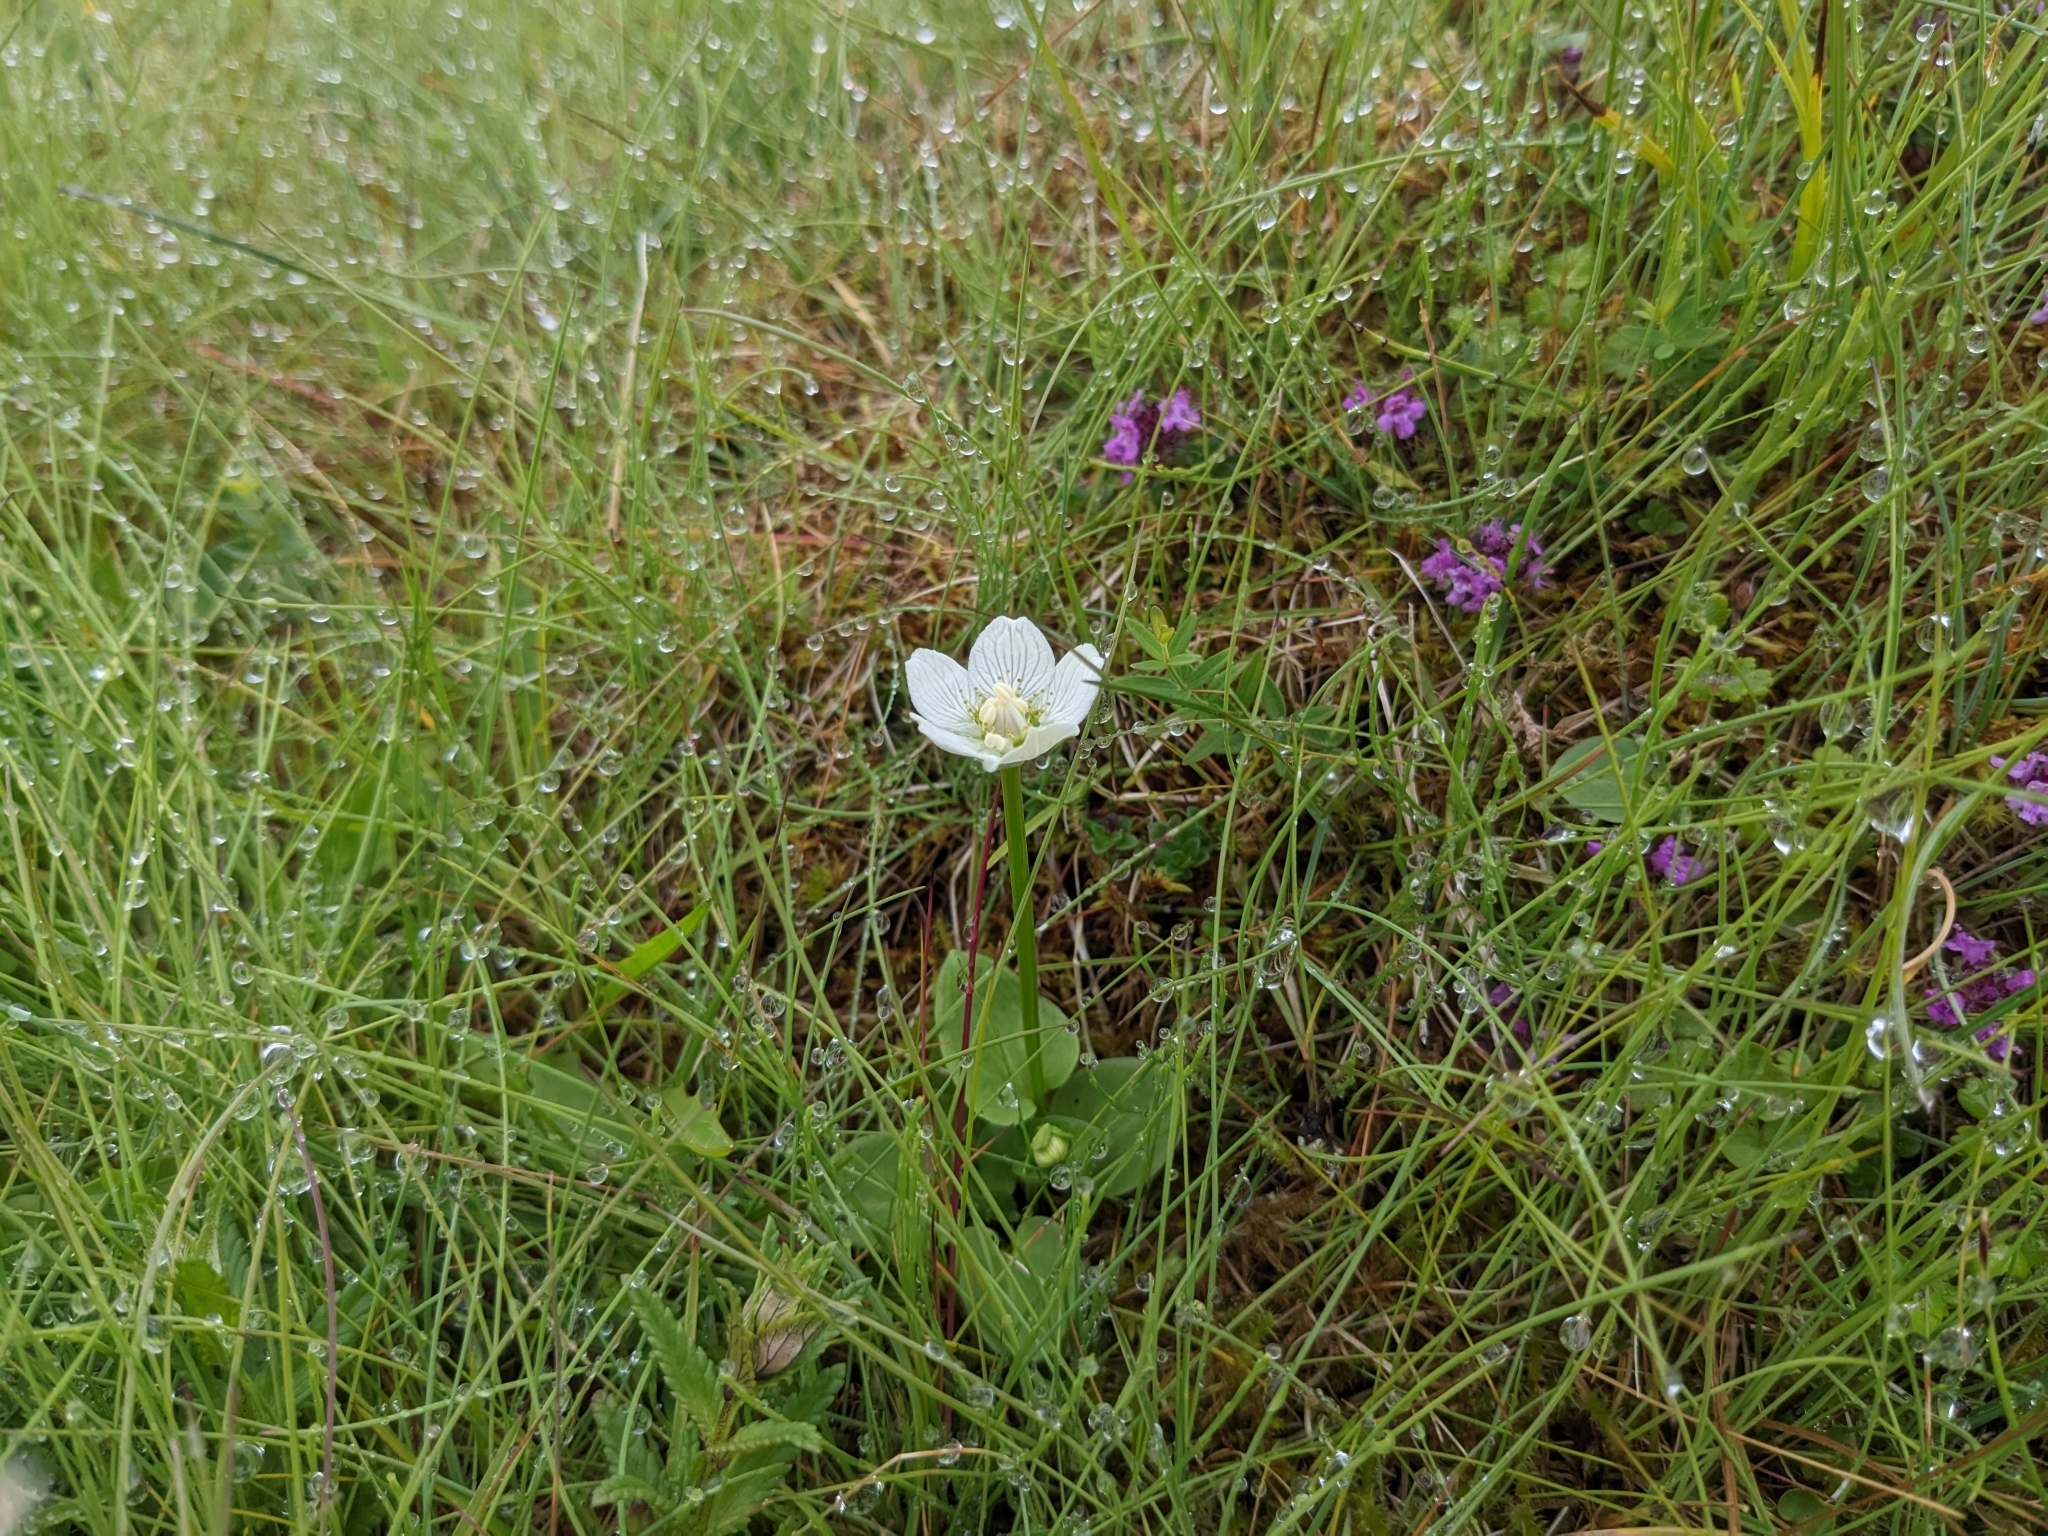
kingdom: Plantae
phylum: Tracheophyta
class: Magnoliopsida
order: Celastrales
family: Parnassiaceae
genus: Parnassia
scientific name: Parnassia palustris
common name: Grass-of-parnassus
